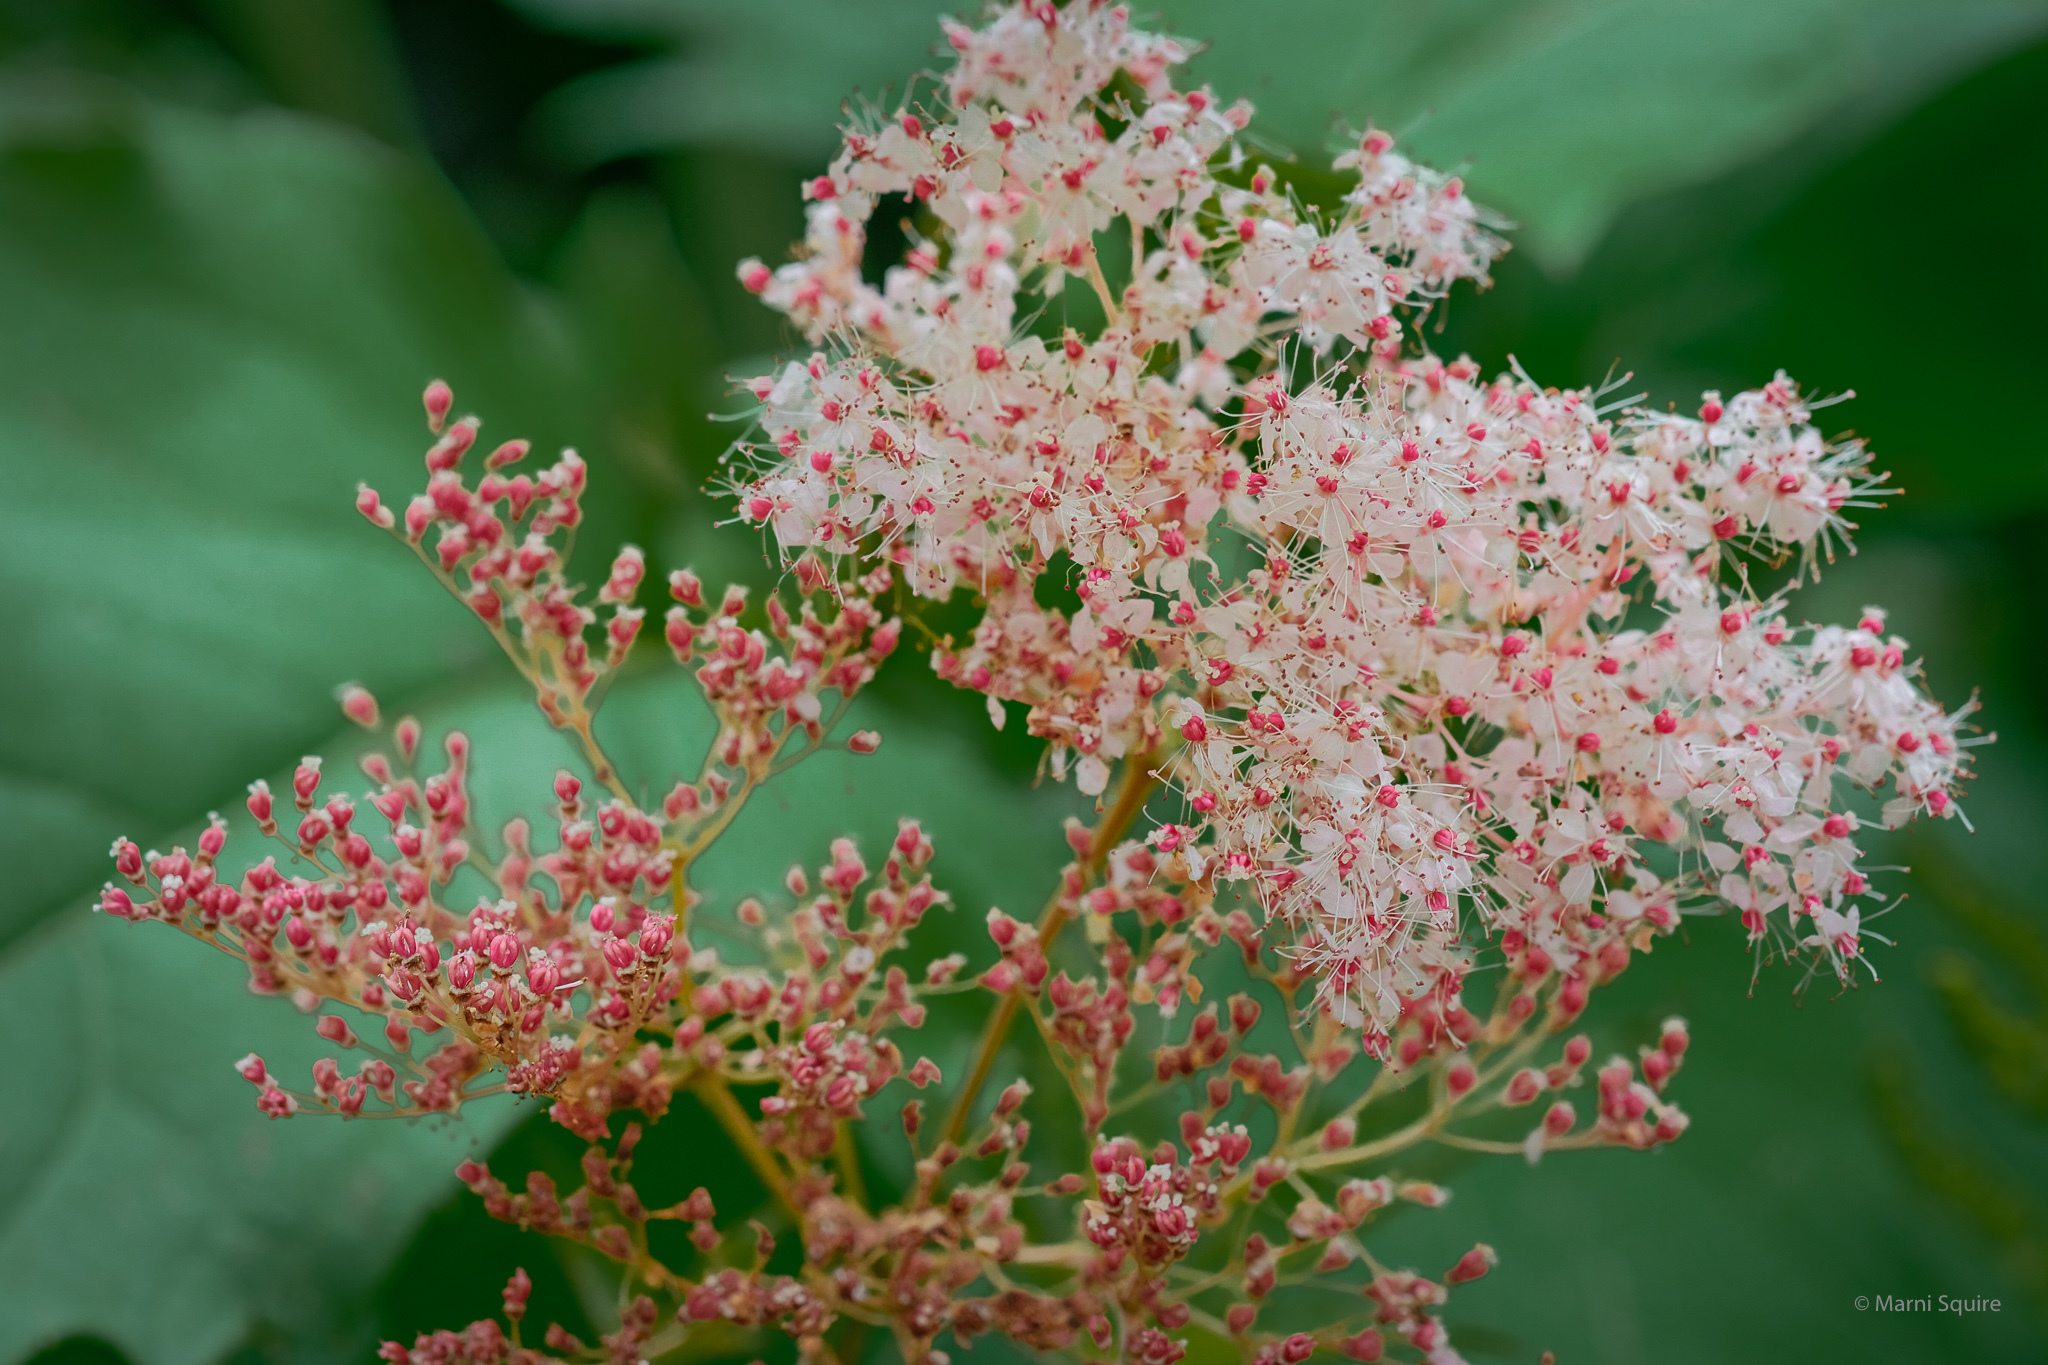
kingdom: Plantae
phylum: Tracheophyta
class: Magnoliopsida
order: Rosales
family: Rosaceae
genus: Filipendula
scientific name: Filipendula rubra
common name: Queen-of-the-prairie
